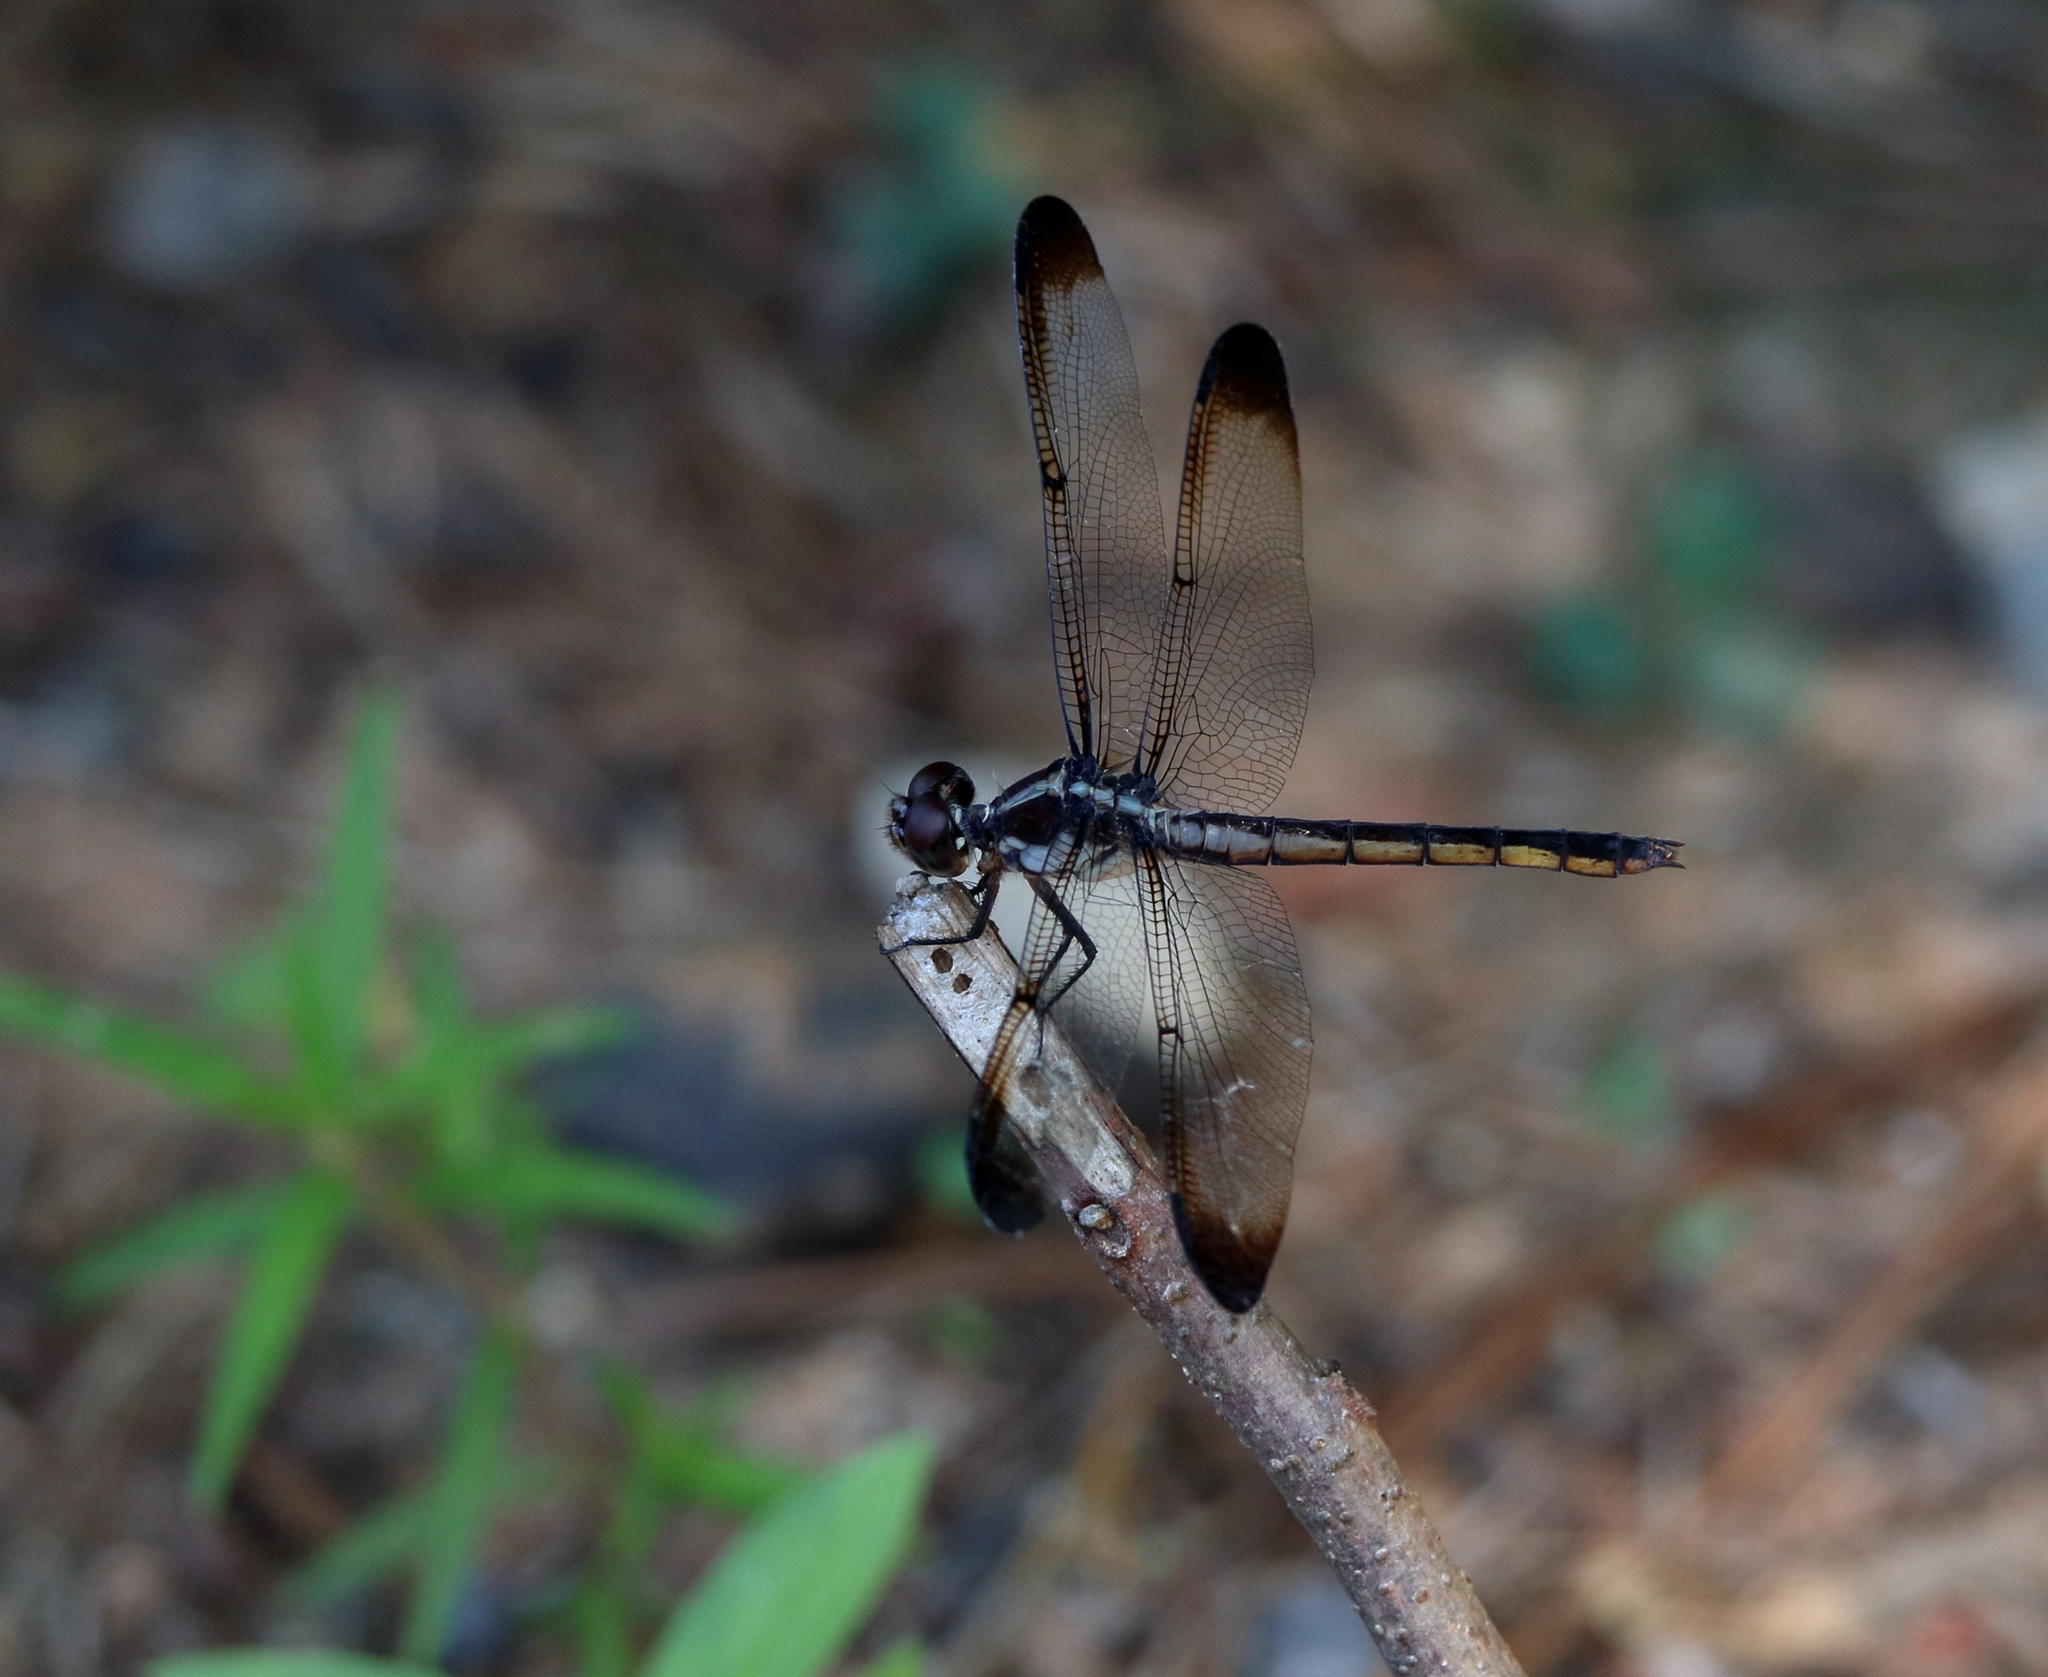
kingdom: Animalia
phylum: Arthropoda
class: Insecta
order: Odonata
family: Libellulidae
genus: Libellula
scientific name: Libellula incesta
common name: Slaty skimmer
